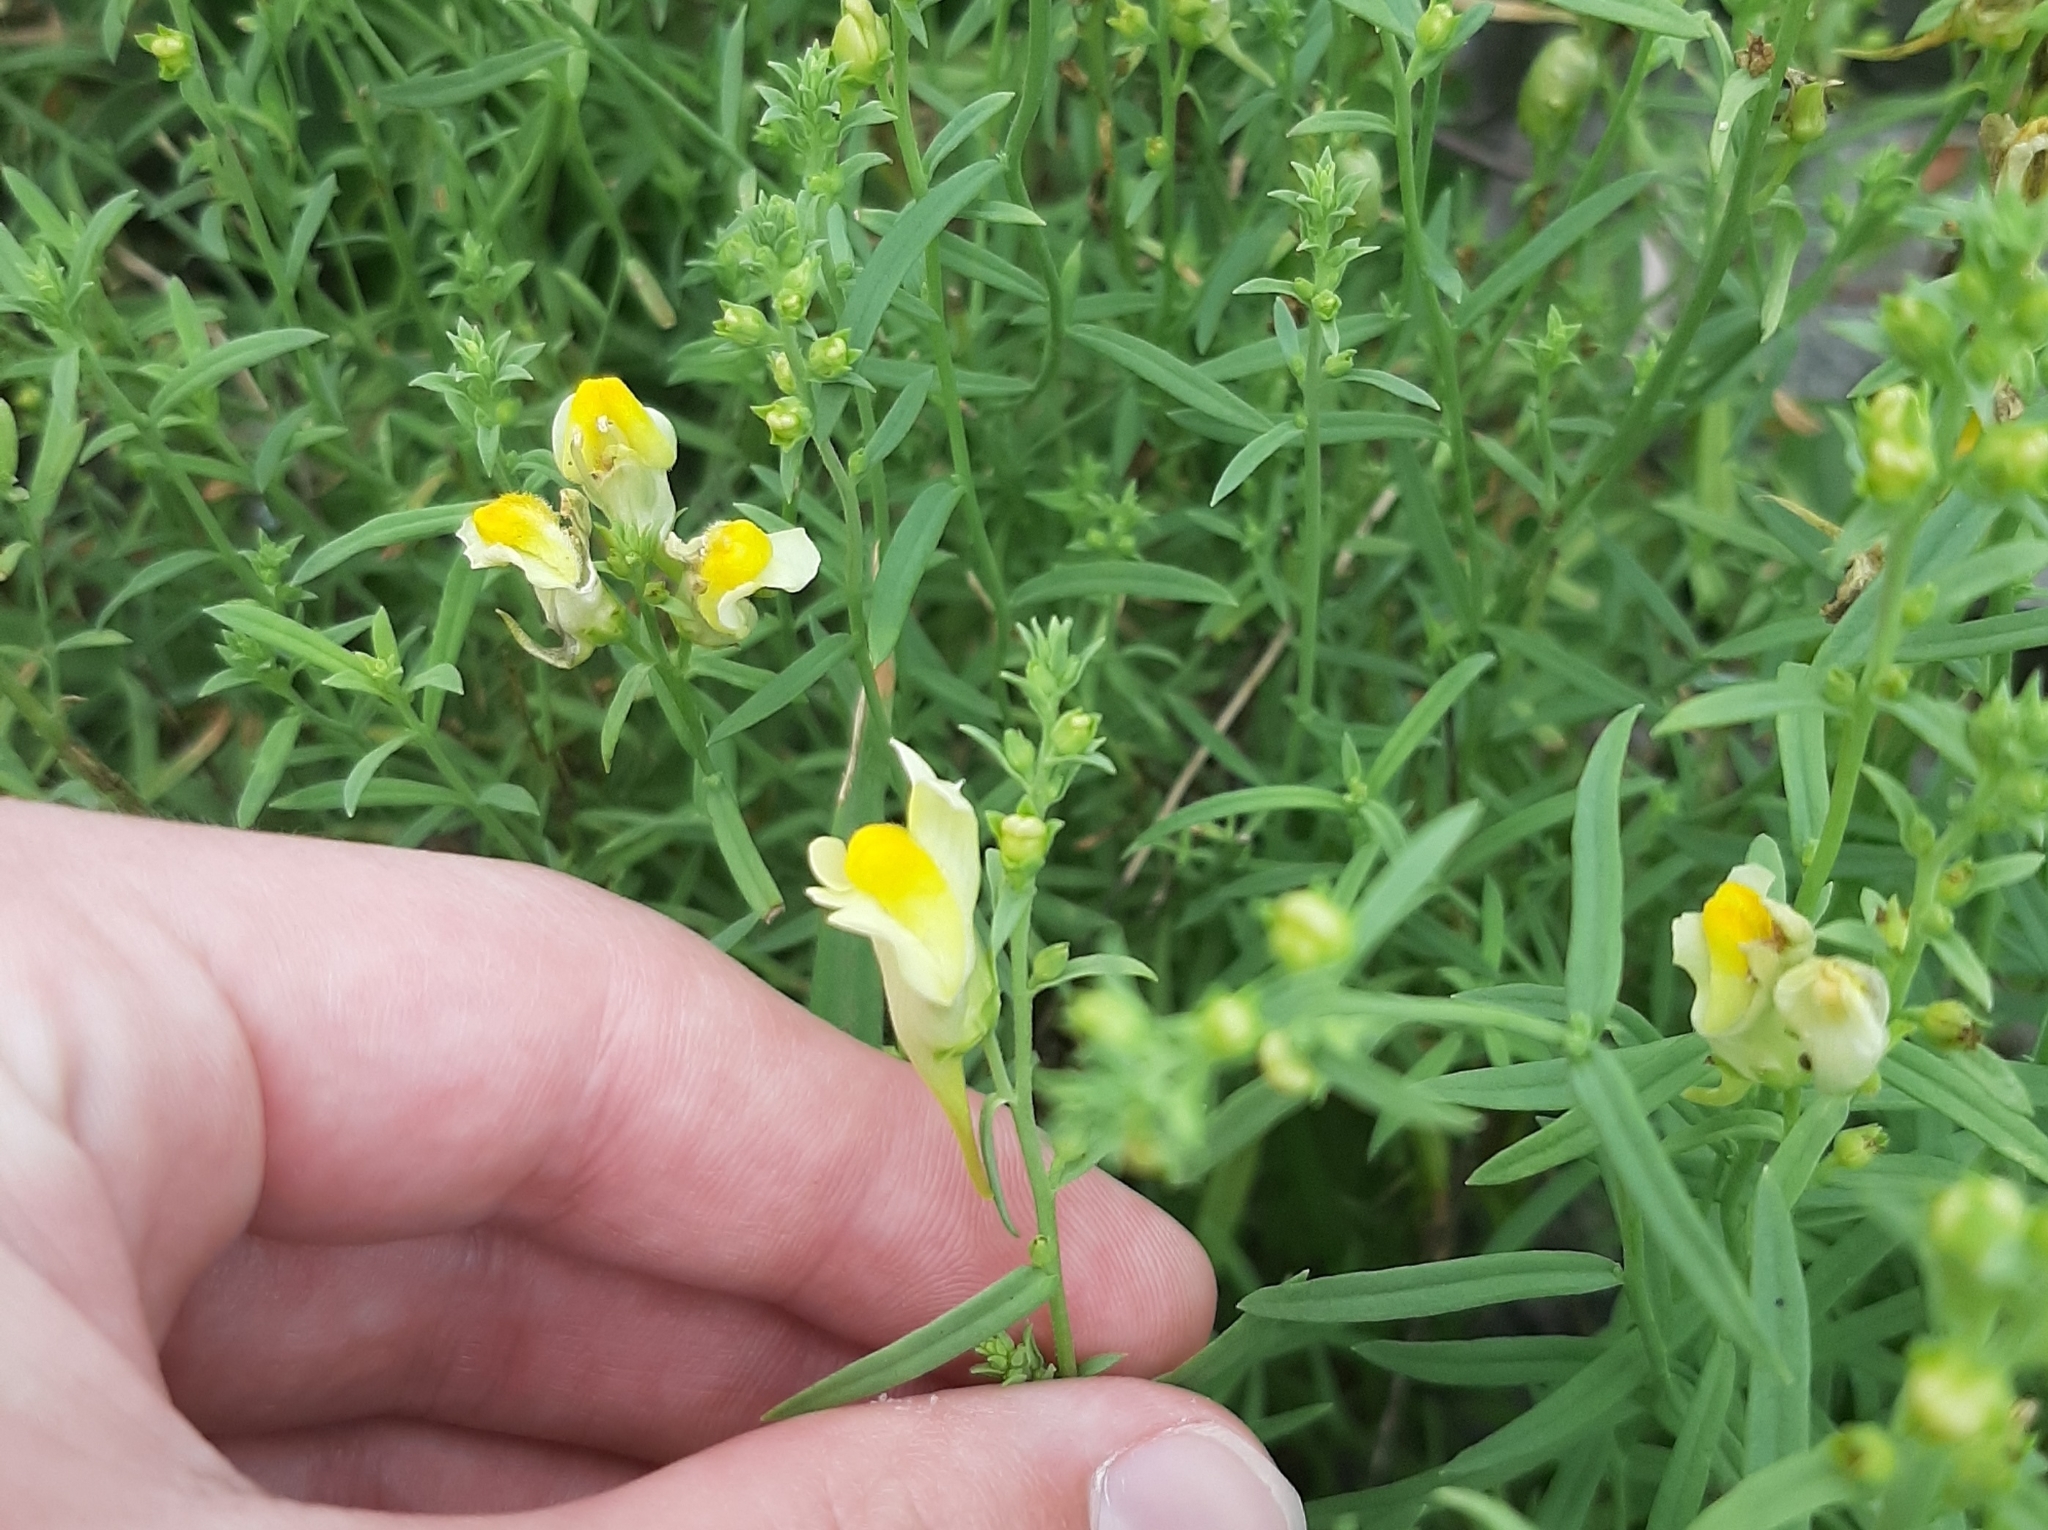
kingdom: Plantae
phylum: Tracheophyta
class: Magnoliopsida
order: Lamiales
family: Plantaginaceae
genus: Linaria
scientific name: Linaria vulgaris
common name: Butter and eggs
